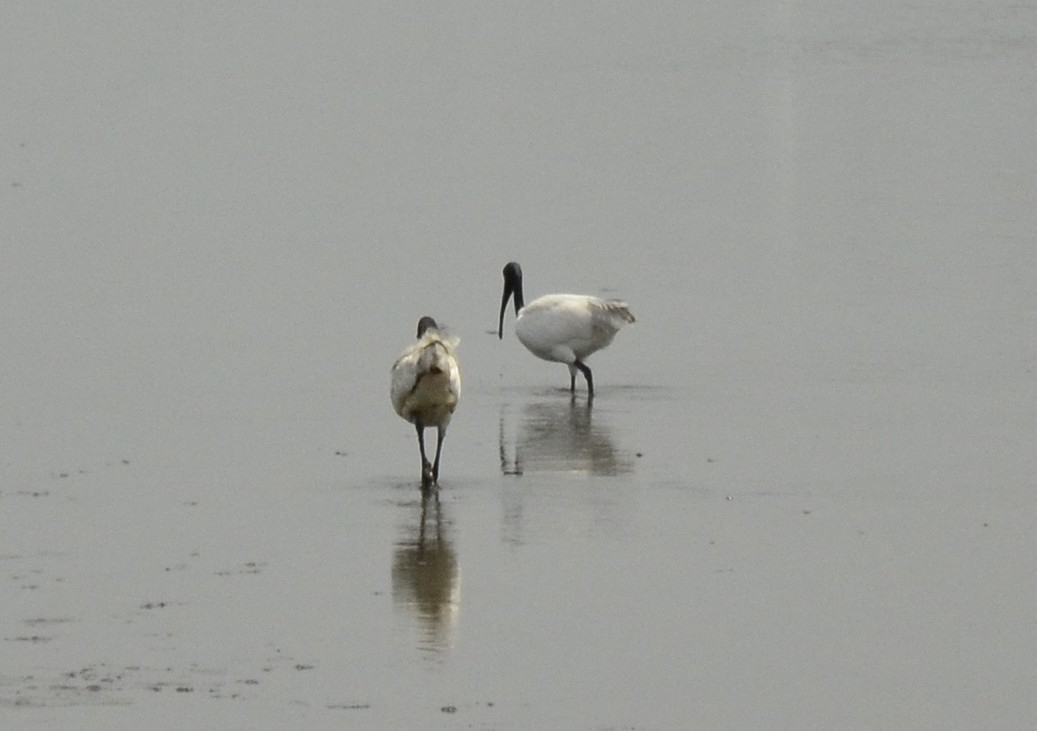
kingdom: Animalia
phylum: Chordata
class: Aves
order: Pelecaniformes
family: Threskiornithidae
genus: Threskiornis
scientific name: Threskiornis melanocephalus
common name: Black-headed ibis
